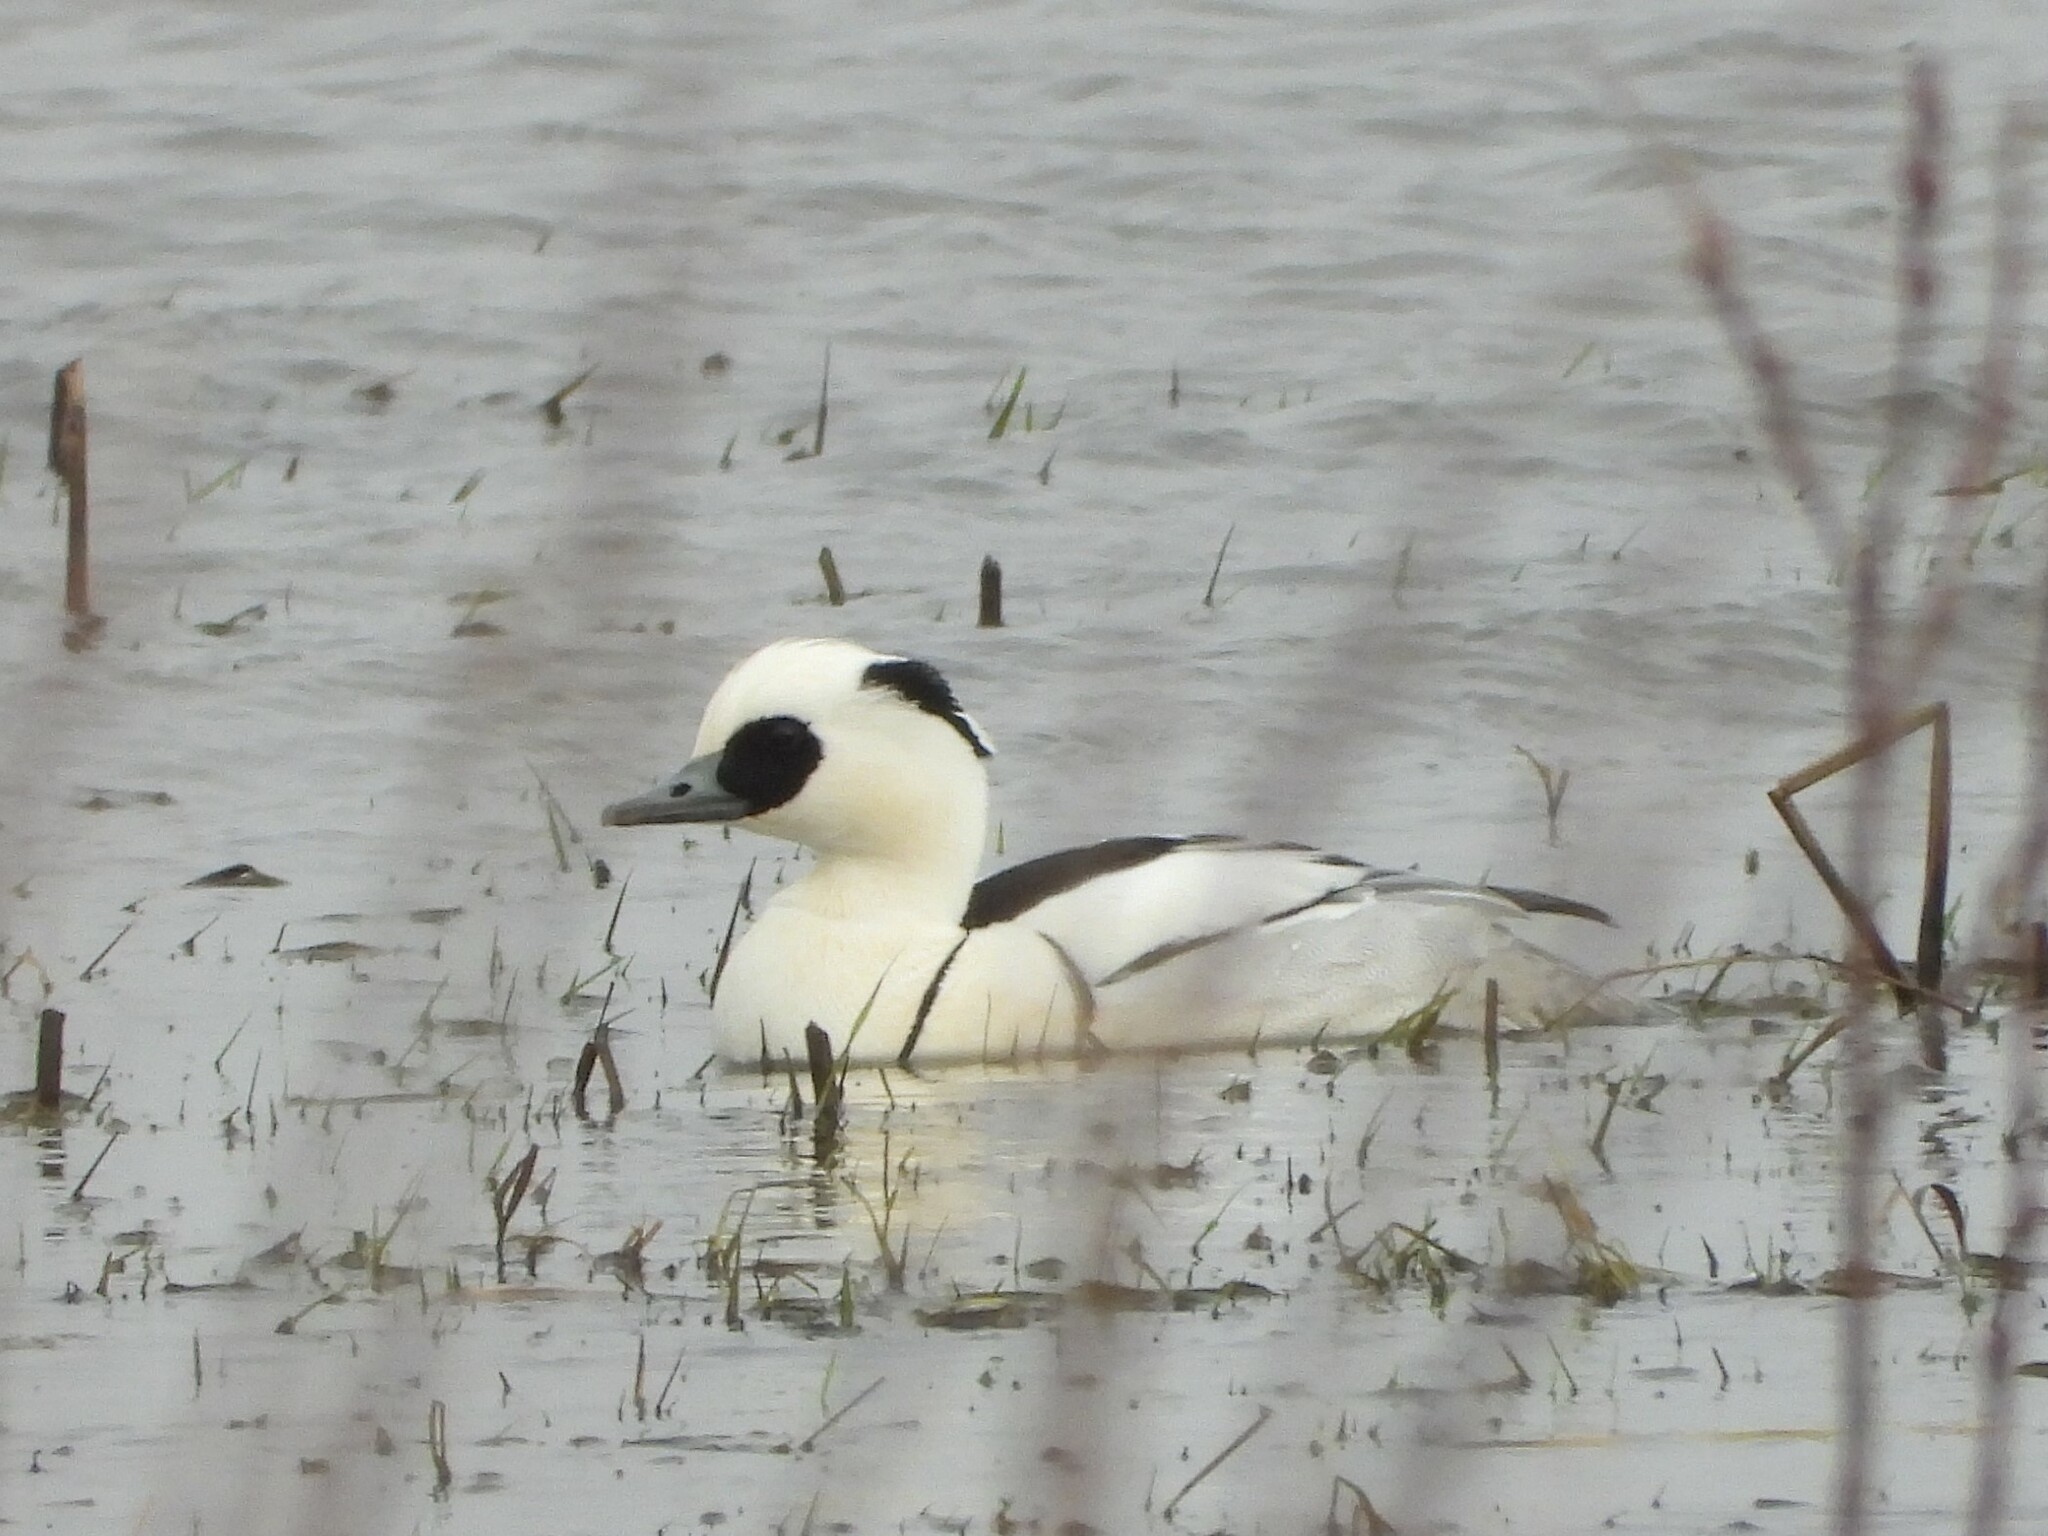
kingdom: Animalia
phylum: Chordata
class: Aves
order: Anseriformes
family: Anatidae
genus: Mergellus
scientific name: Mergellus albellus
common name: Smew
